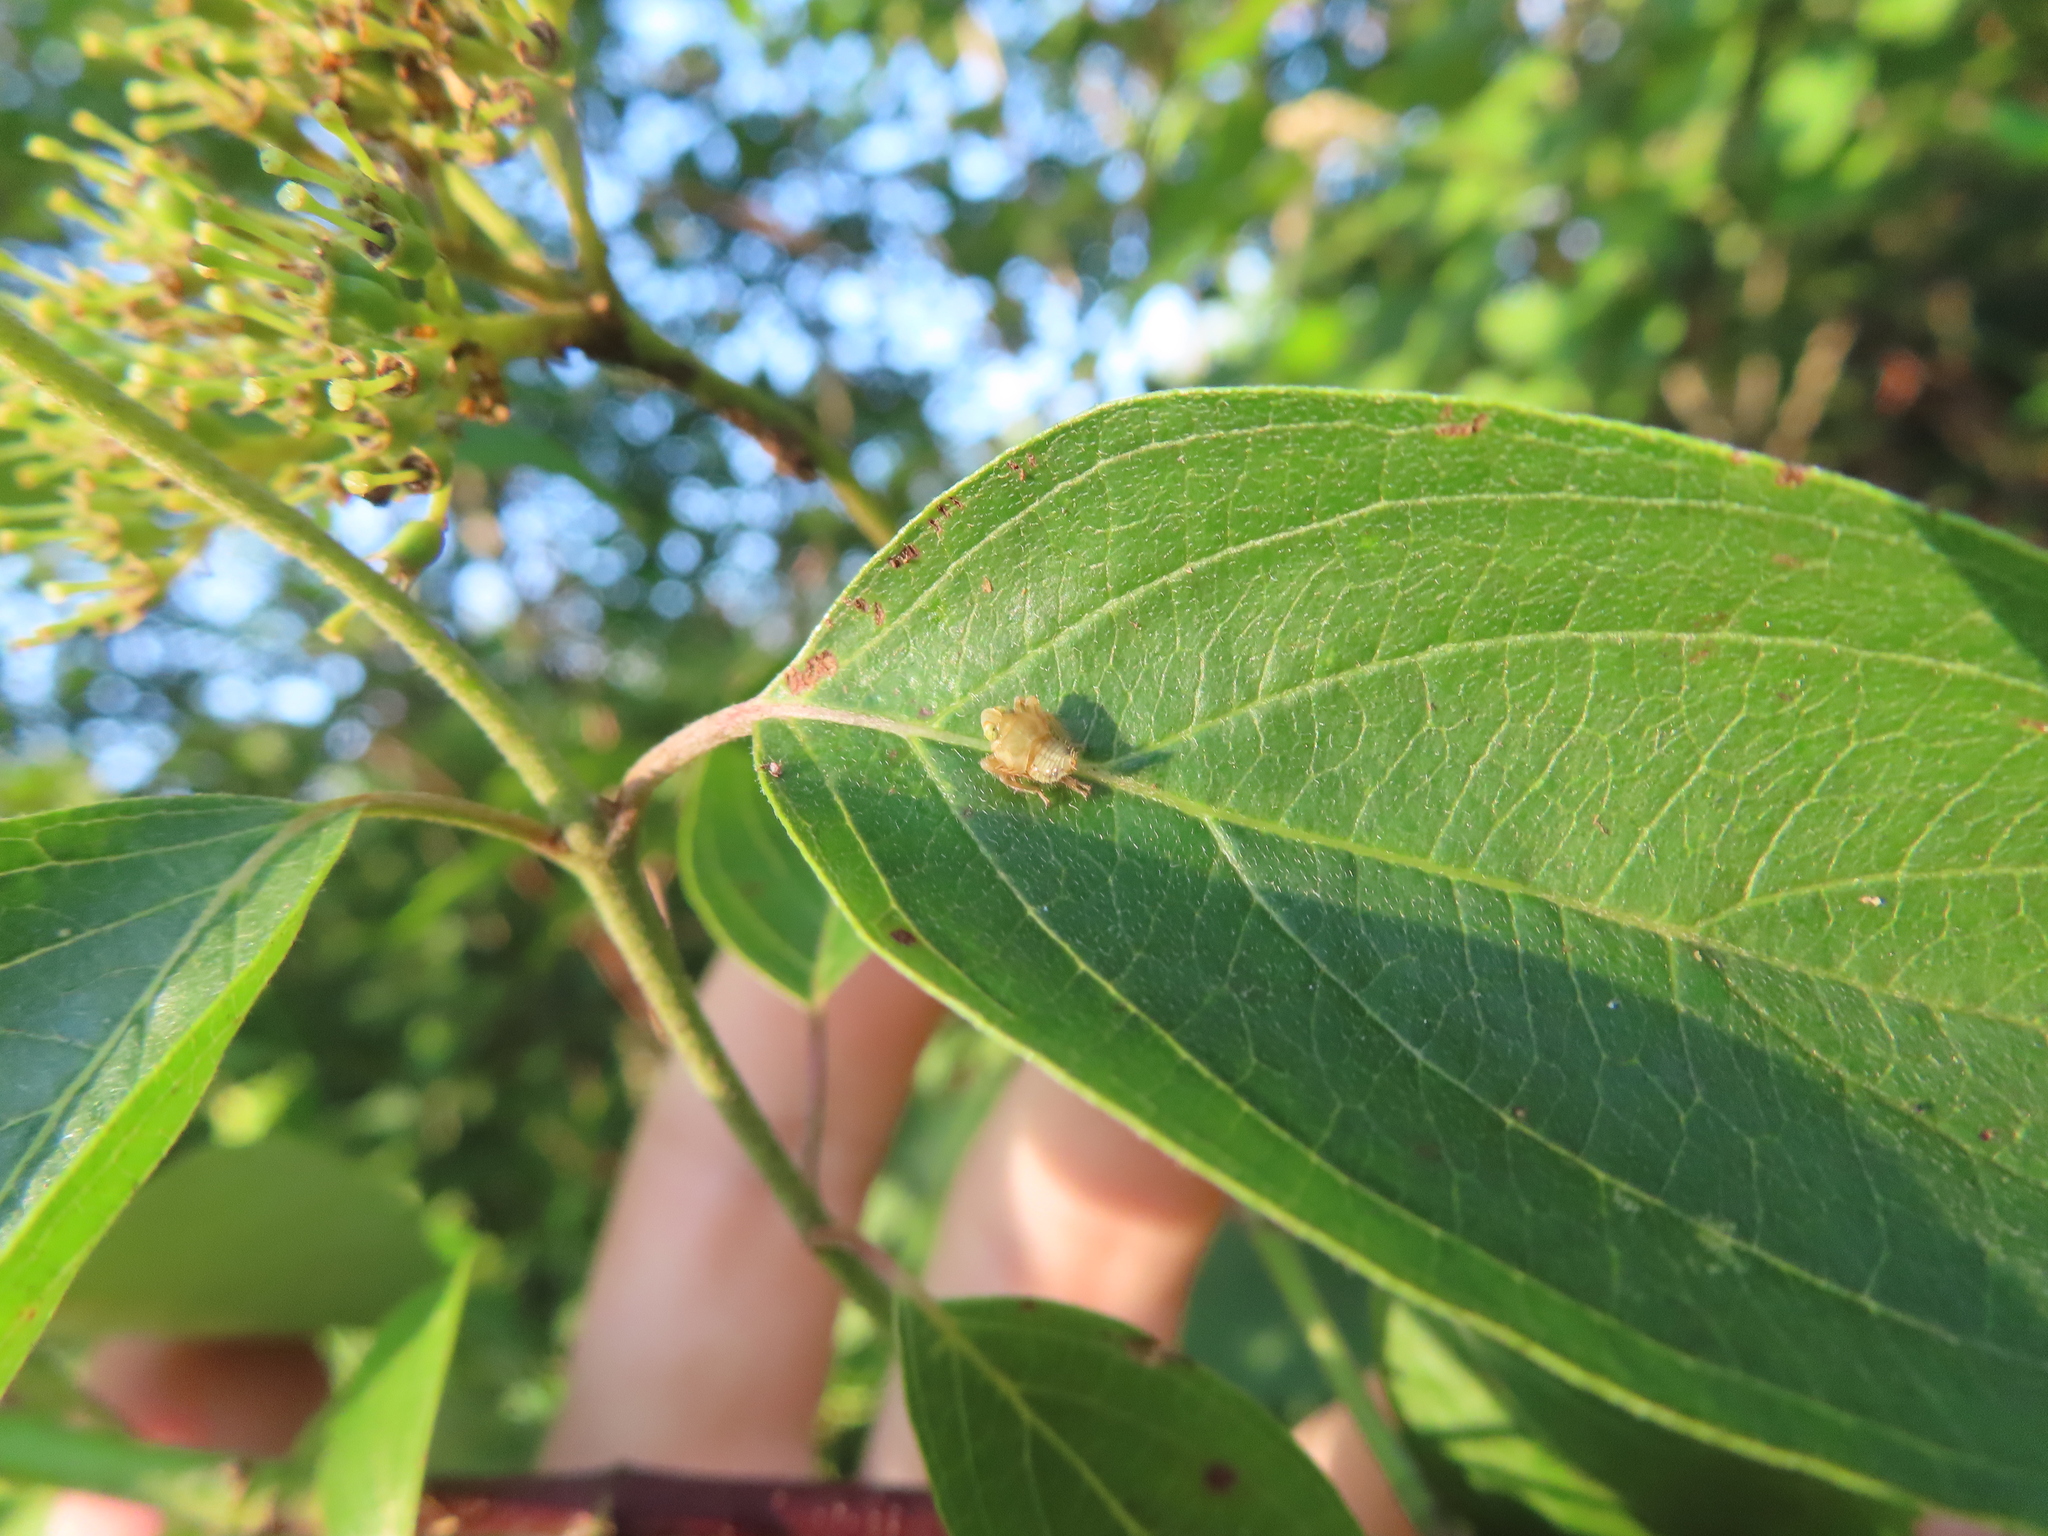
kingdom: Animalia
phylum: Arthropoda
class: Insecta
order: Hemiptera
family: Cicadellidae
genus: Jikradia
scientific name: Jikradia olitoria
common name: Coppery leafhopper
